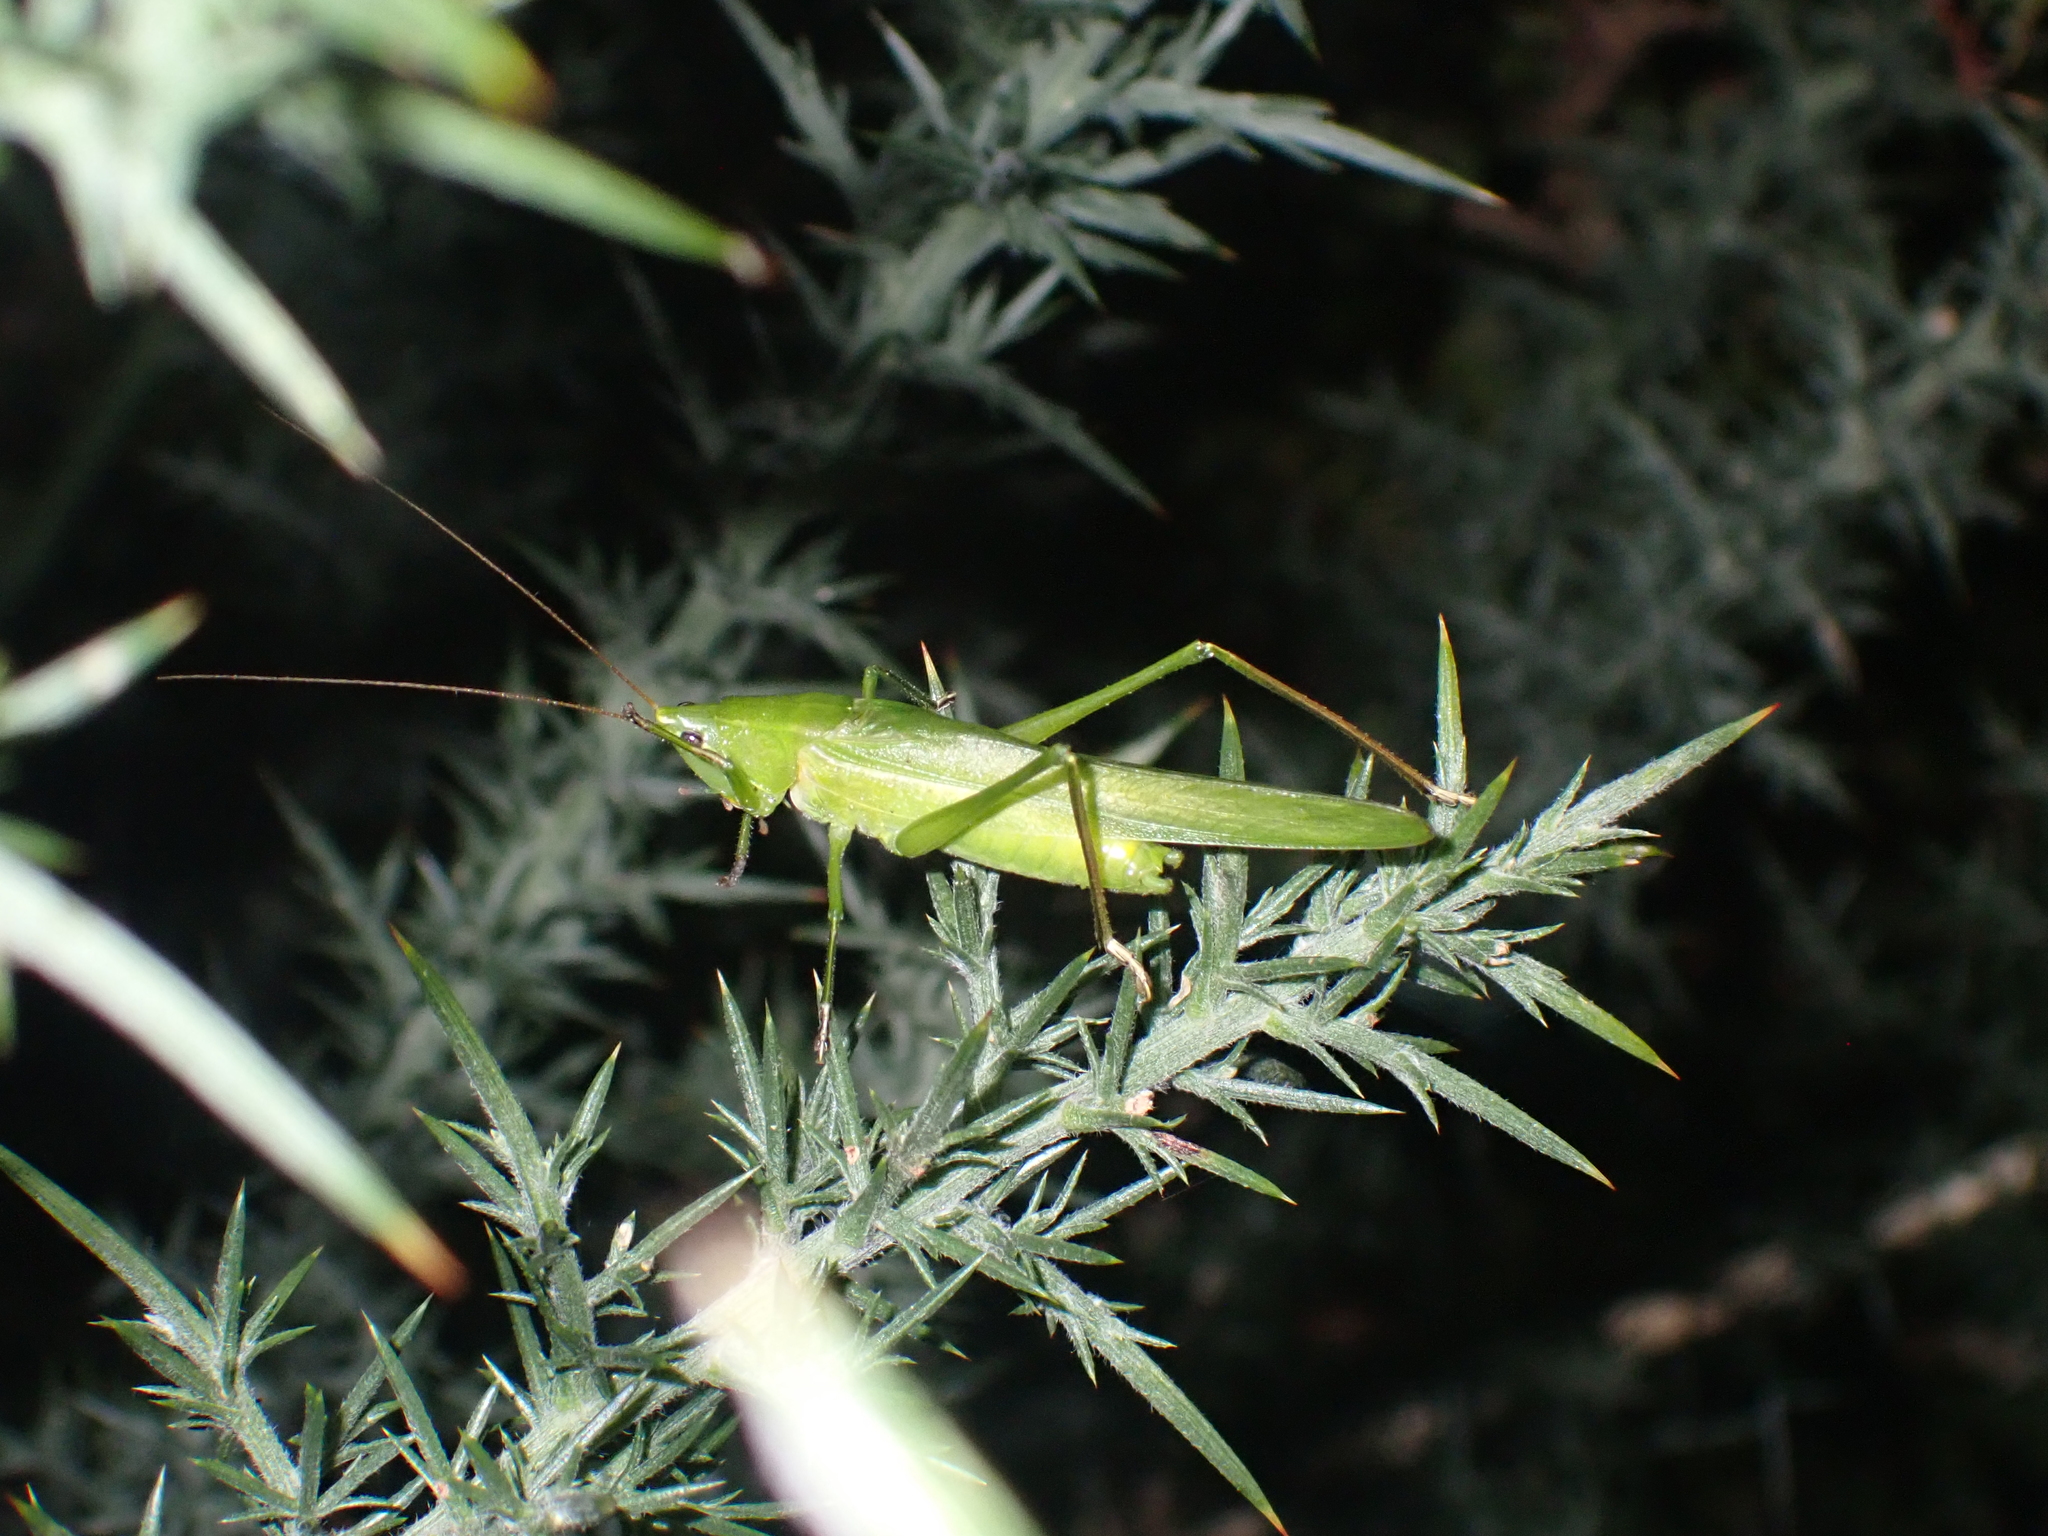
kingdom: Animalia
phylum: Arthropoda
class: Insecta
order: Orthoptera
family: Tettigoniidae
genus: Ruspolia
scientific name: Ruspolia nitidula
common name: Large conehead
